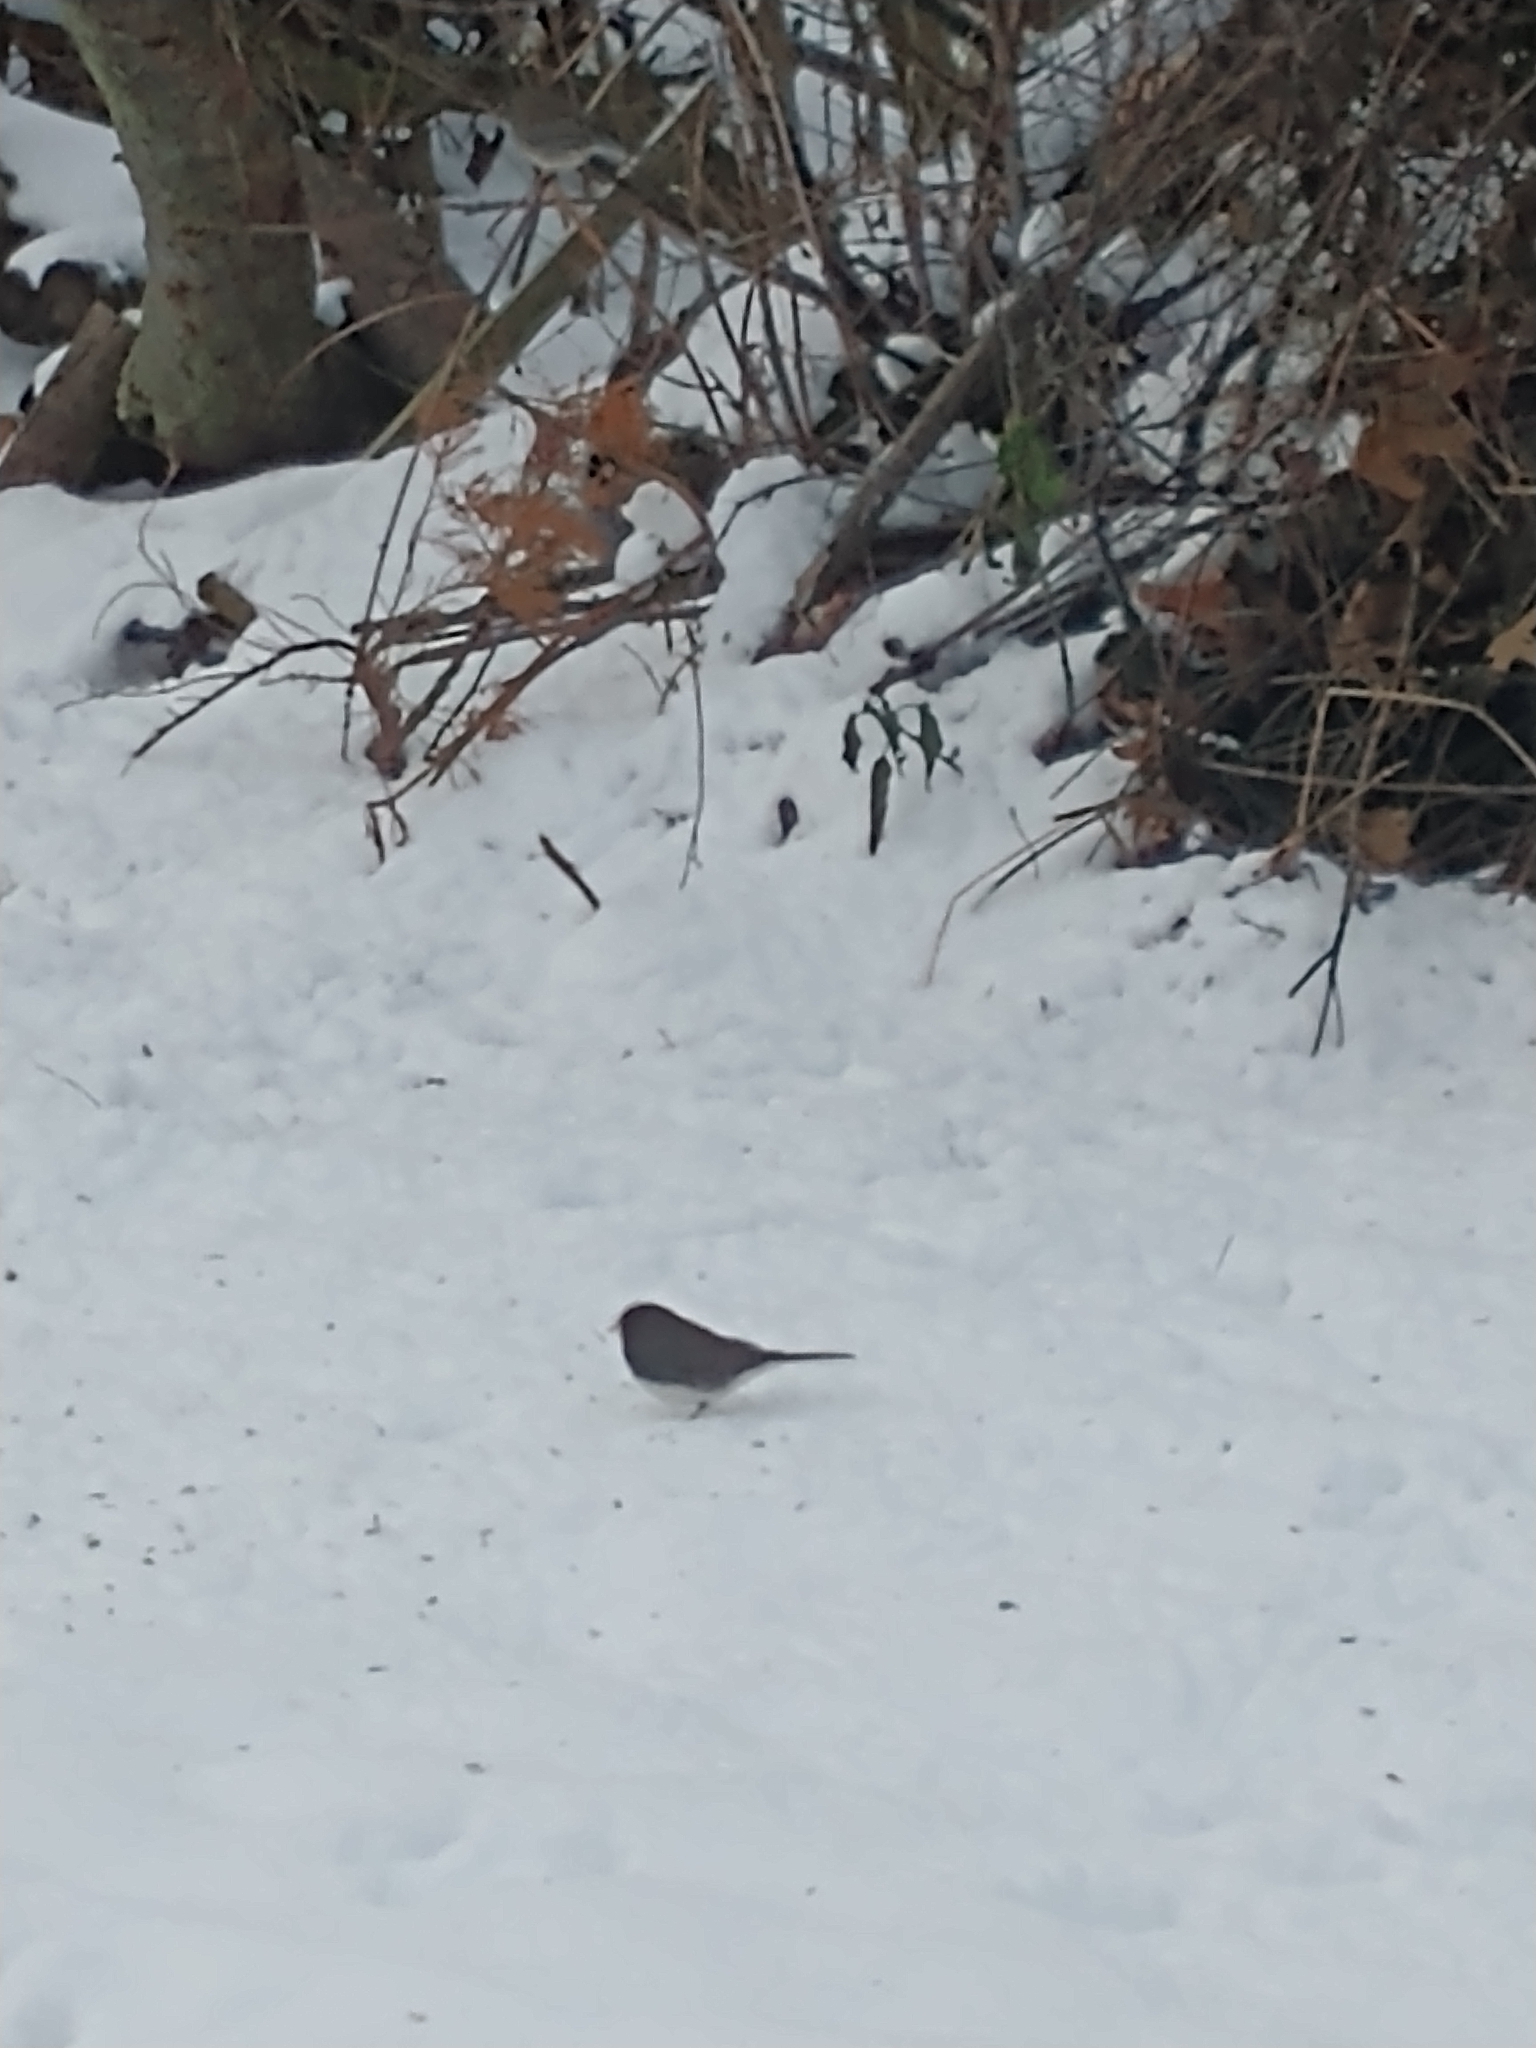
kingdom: Animalia
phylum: Chordata
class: Aves
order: Passeriformes
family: Passerellidae
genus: Junco
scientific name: Junco hyemalis
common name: Dark-eyed junco
